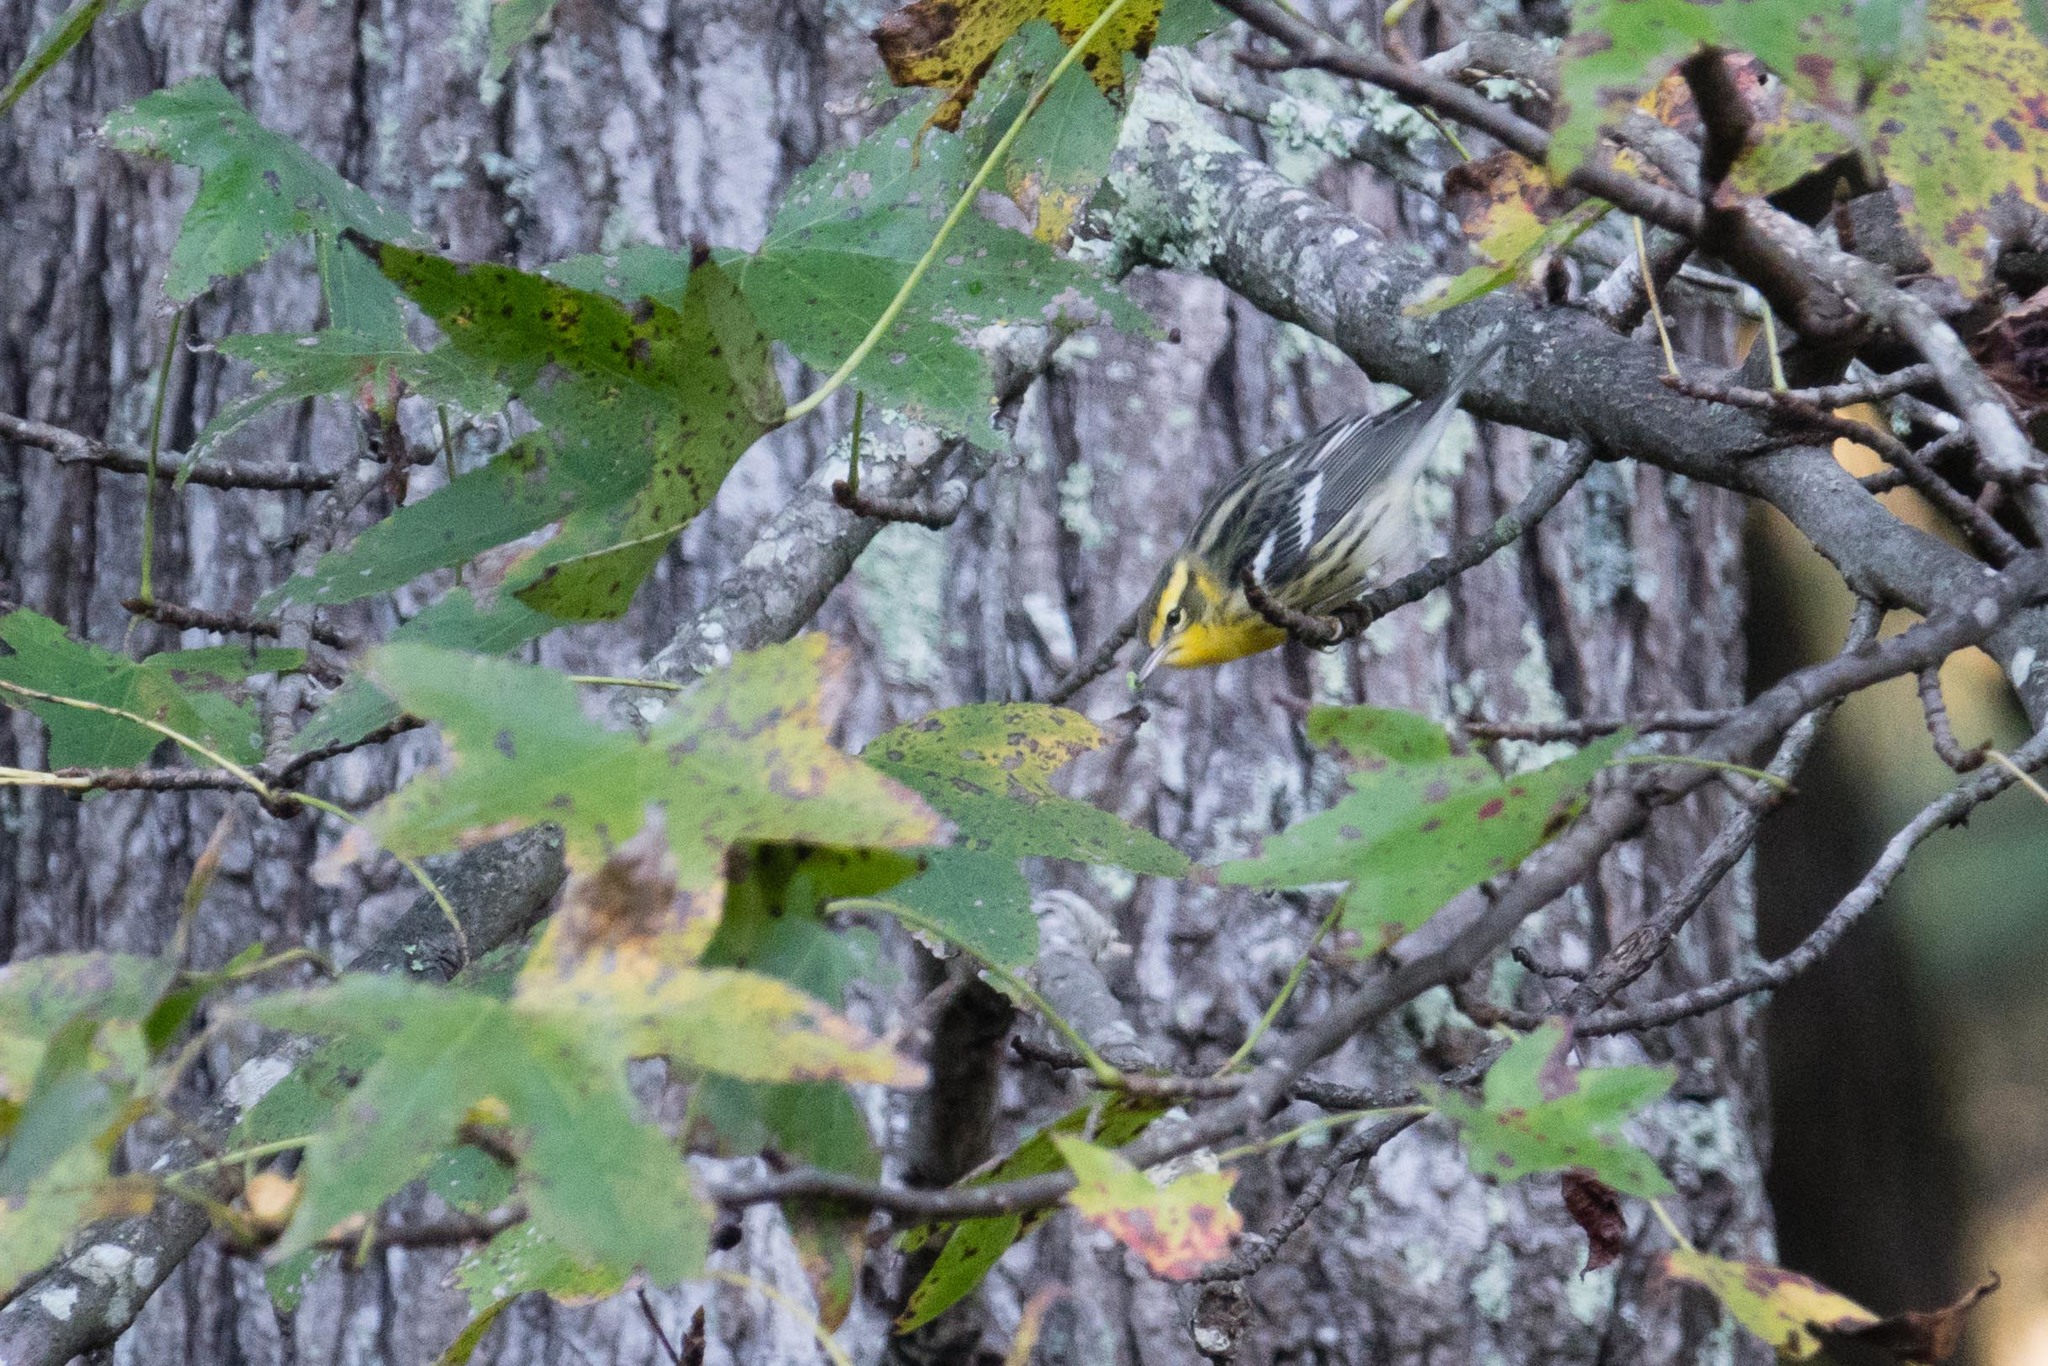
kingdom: Animalia
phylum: Chordata
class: Aves
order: Passeriformes
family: Parulidae
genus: Setophaga
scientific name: Setophaga fusca
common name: Blackburnian warbler
